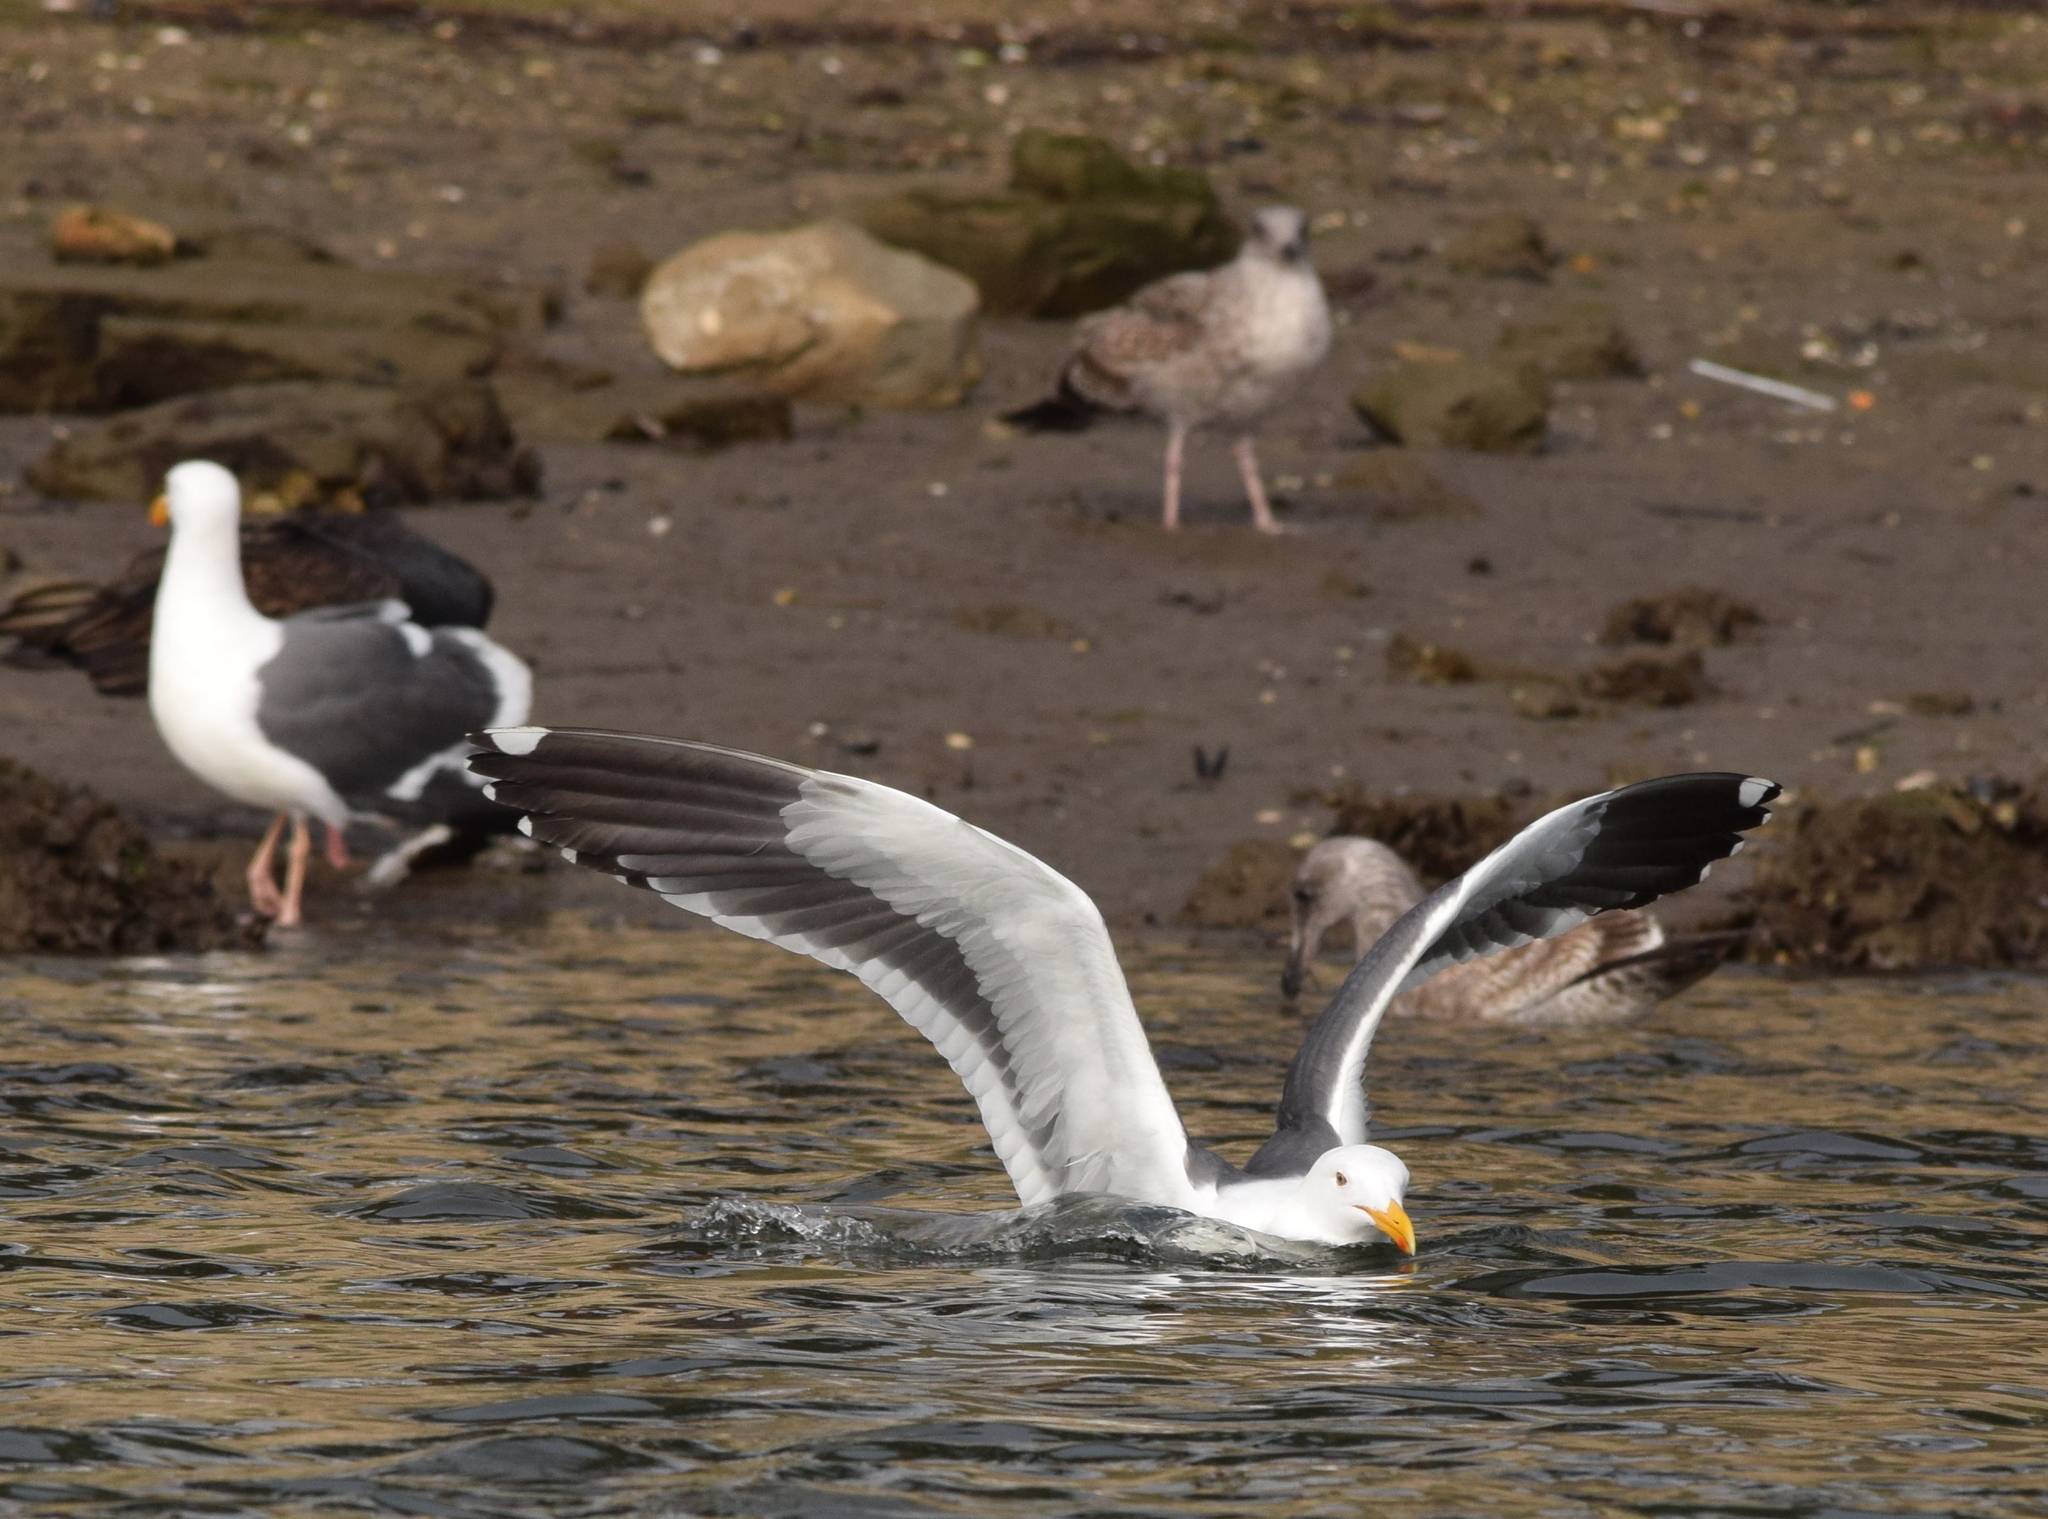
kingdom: Animalia
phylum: Chordata
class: Aves
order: Charadriiformes
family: Laridae
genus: Larus
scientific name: Larus occidentalis
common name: Western gull
